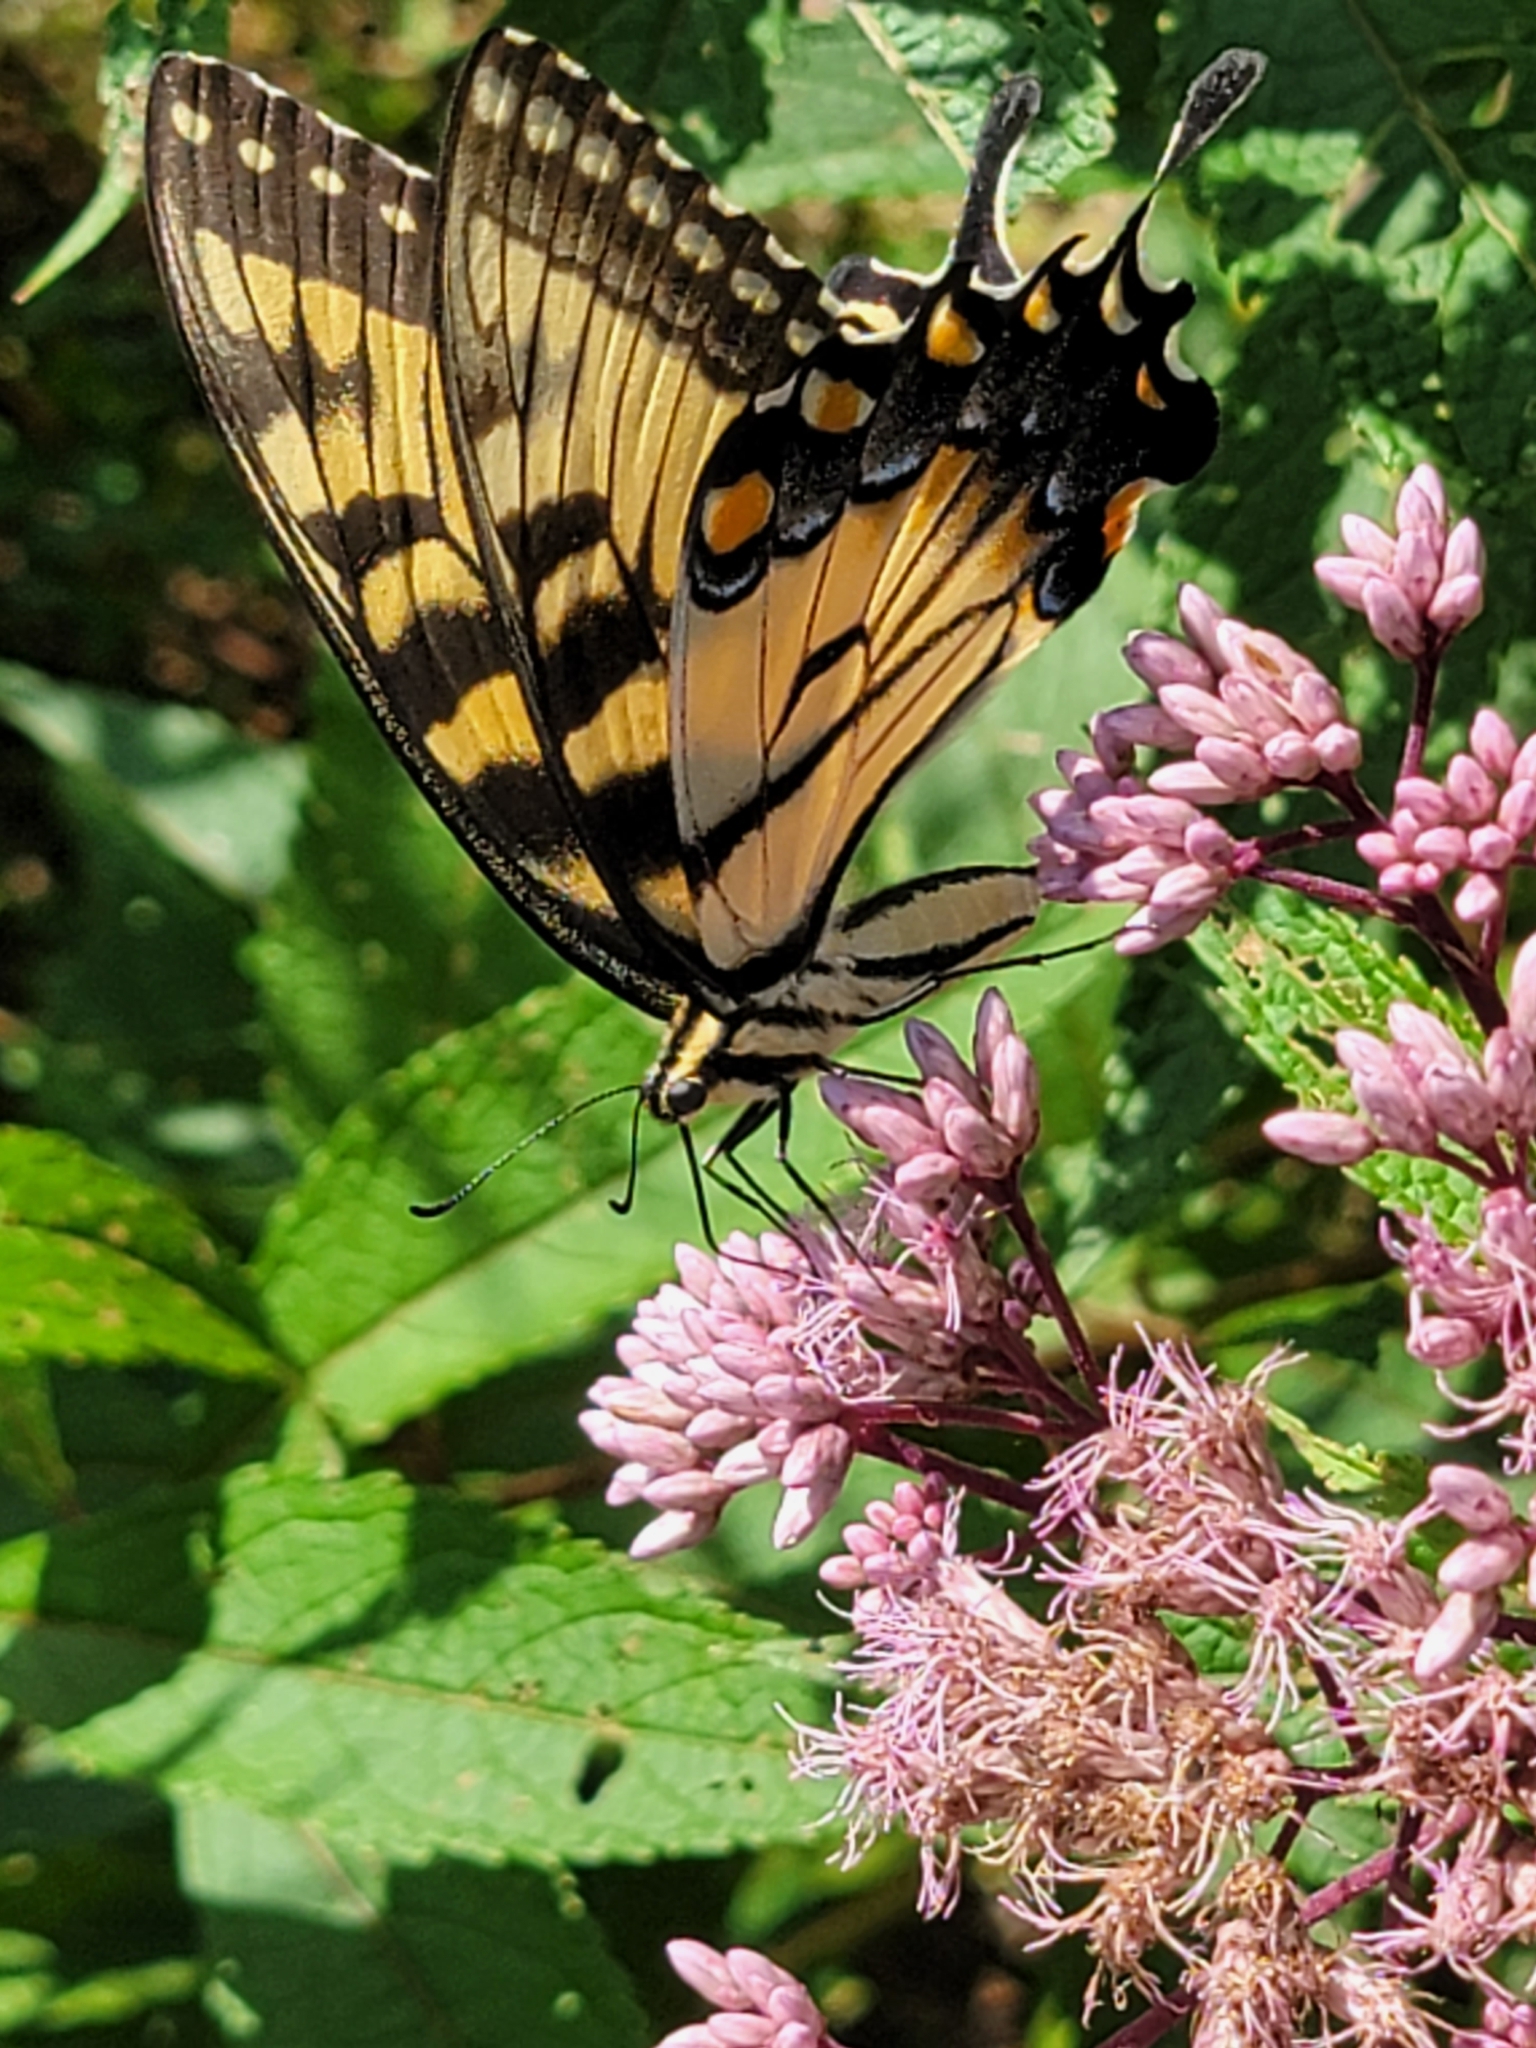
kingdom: Animalia
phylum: Arthropoda
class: Insecta
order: Lepidoptera
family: Papilionidae
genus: Papilio
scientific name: Papilio glaucus
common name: Tiger swallowtail
